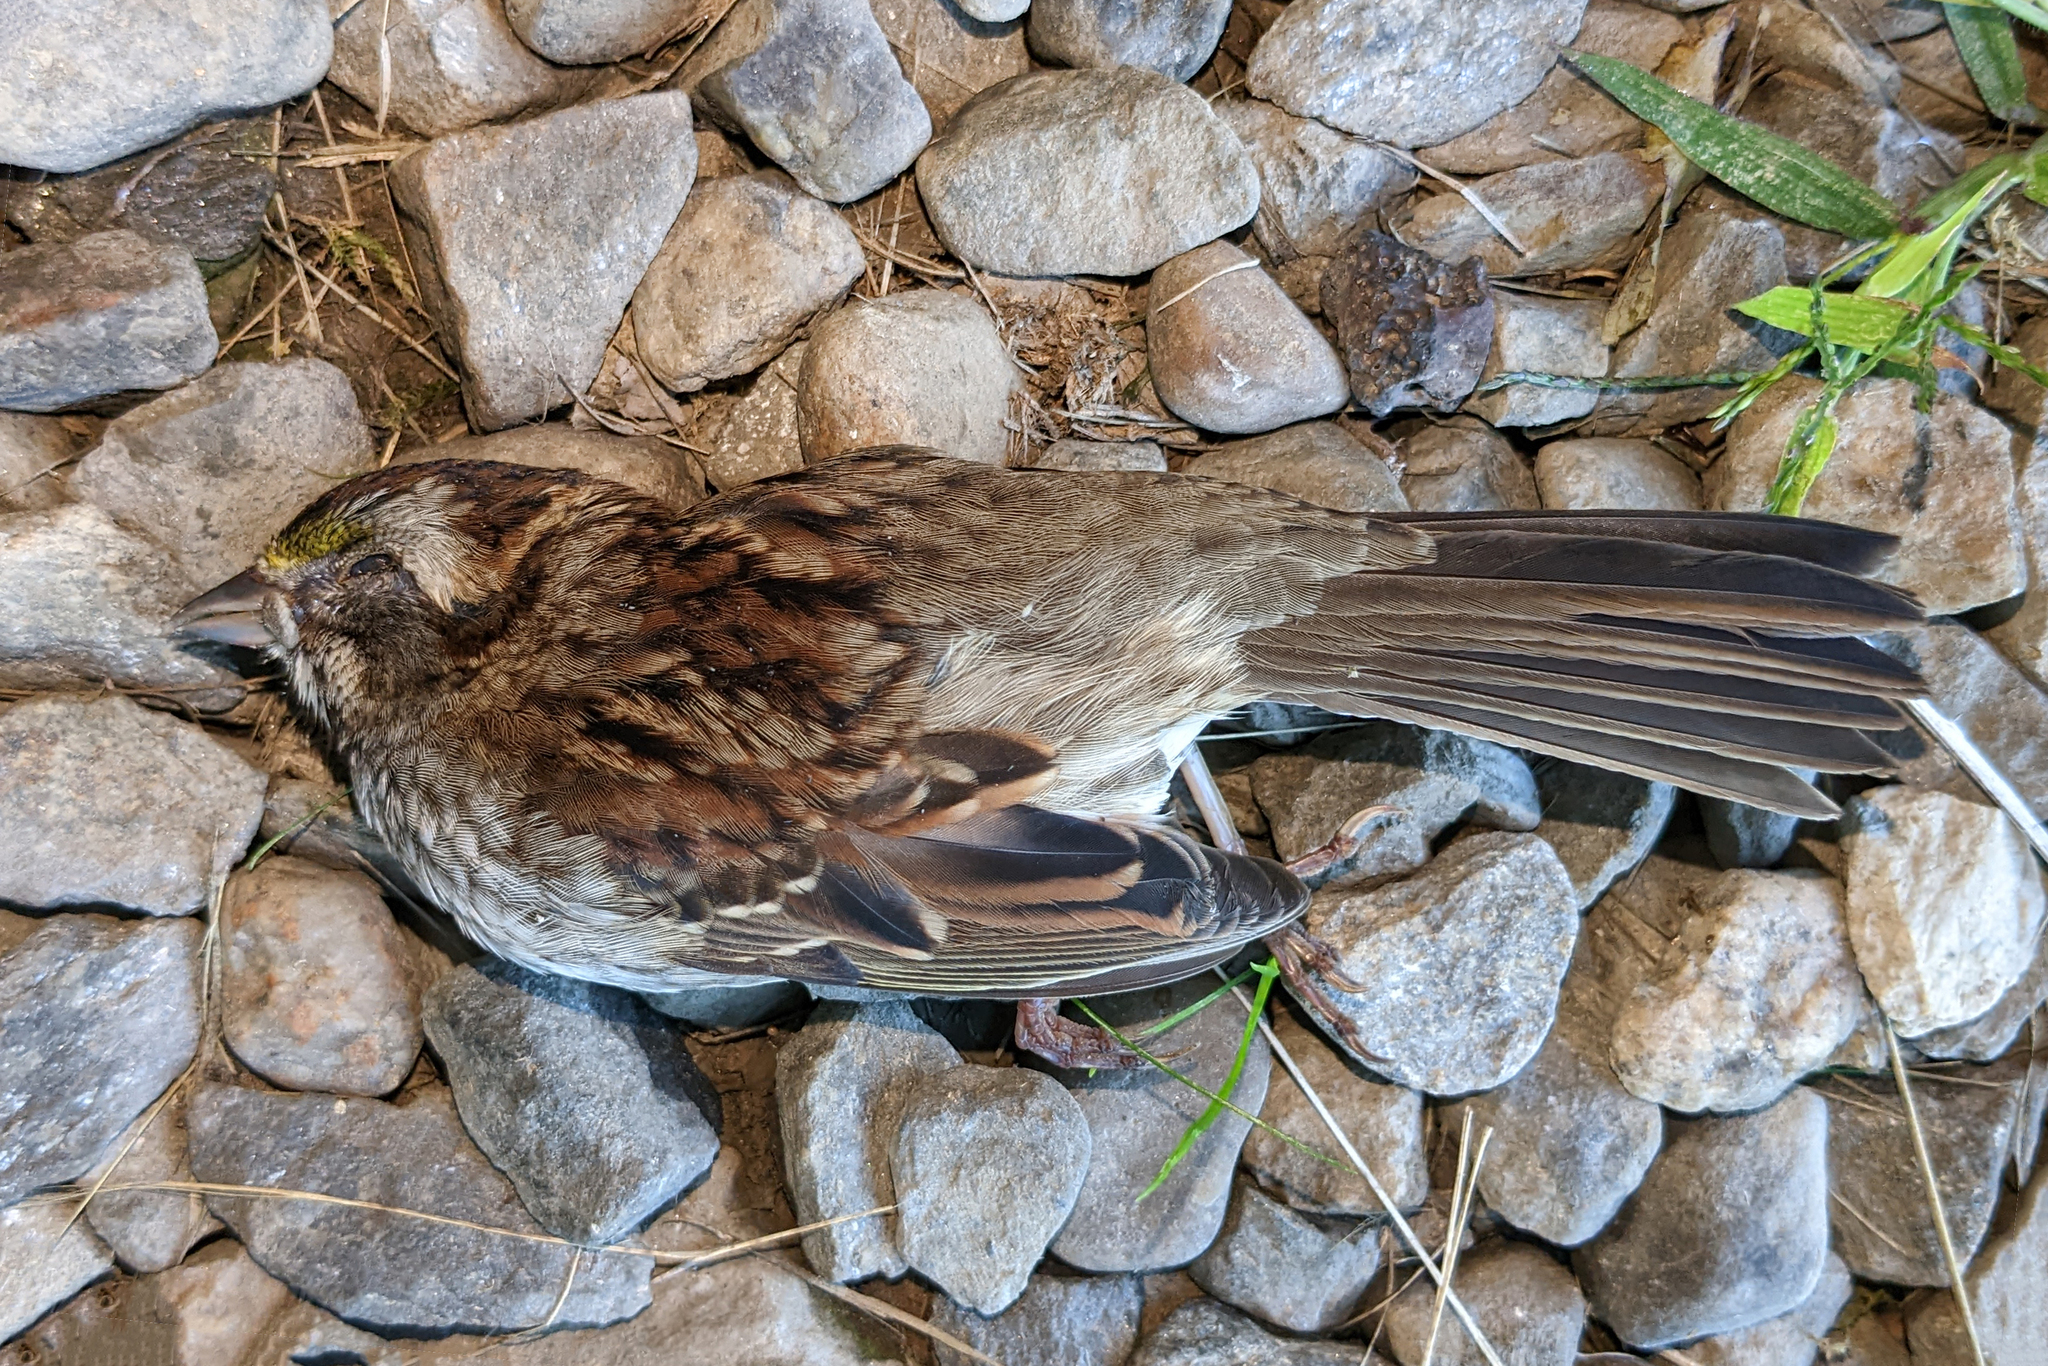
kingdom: Animalia
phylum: Chordata
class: Aves
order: Passeriformes
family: Passerellidae
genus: Zonotrichia
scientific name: Zonotrichia albicollis
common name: White-throated sparrow
